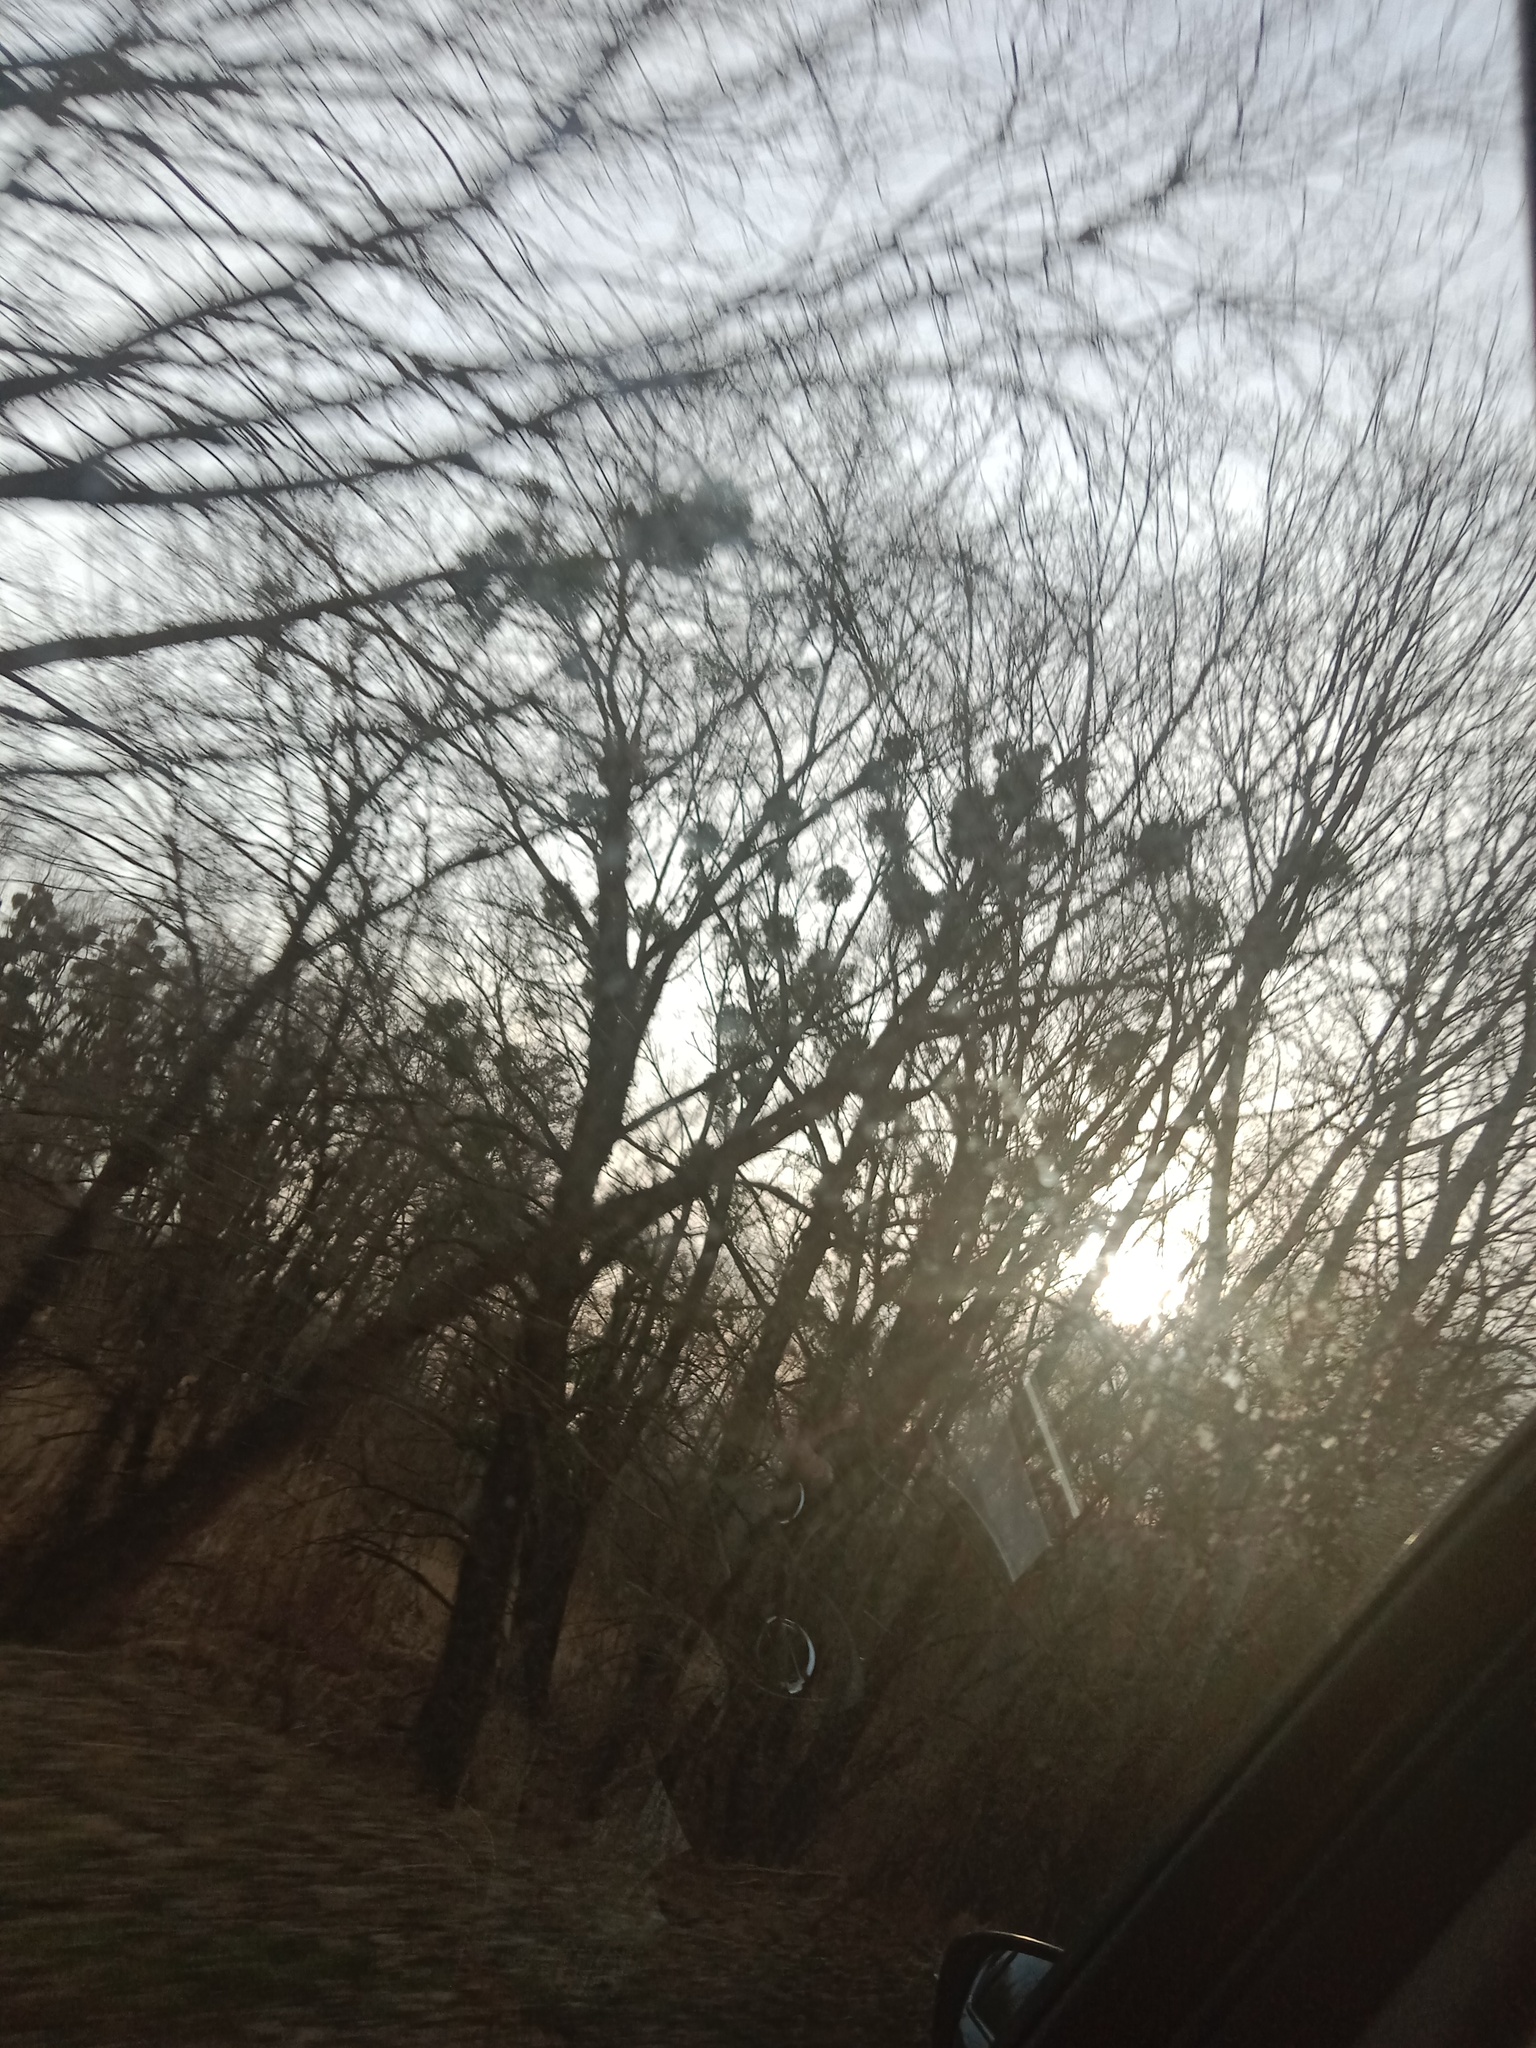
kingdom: Plantae
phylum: Tracheophyta
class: Magnoliopsida
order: Santalales
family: Viscaceae
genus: Viscum
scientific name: Viscum album
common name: Mistletoe
